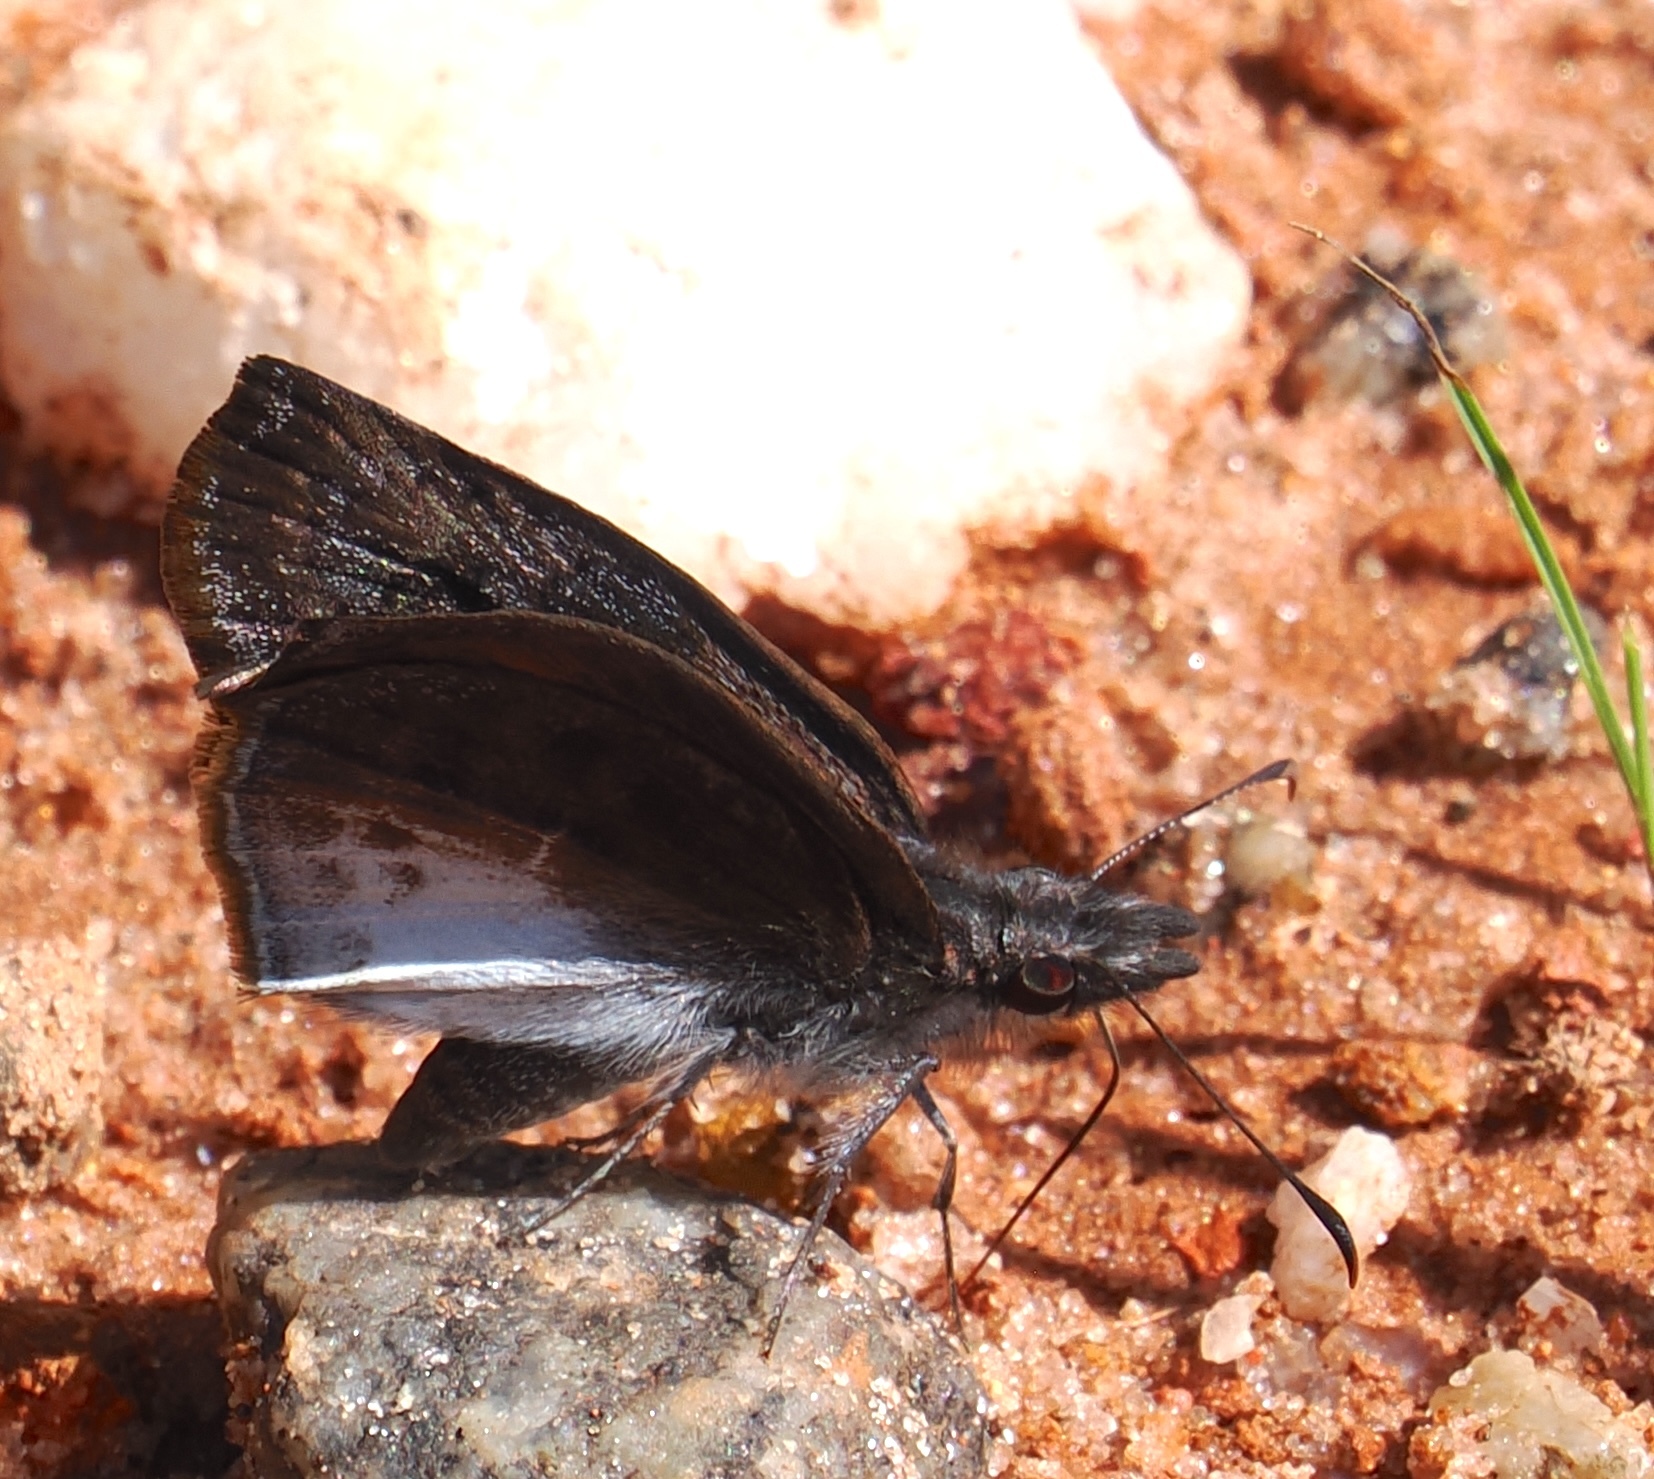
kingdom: Animalia
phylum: Arthropoda
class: Insecta
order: Lepidoptera
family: Hesperiidae
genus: Theagenes
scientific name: Theagenes dichrous
